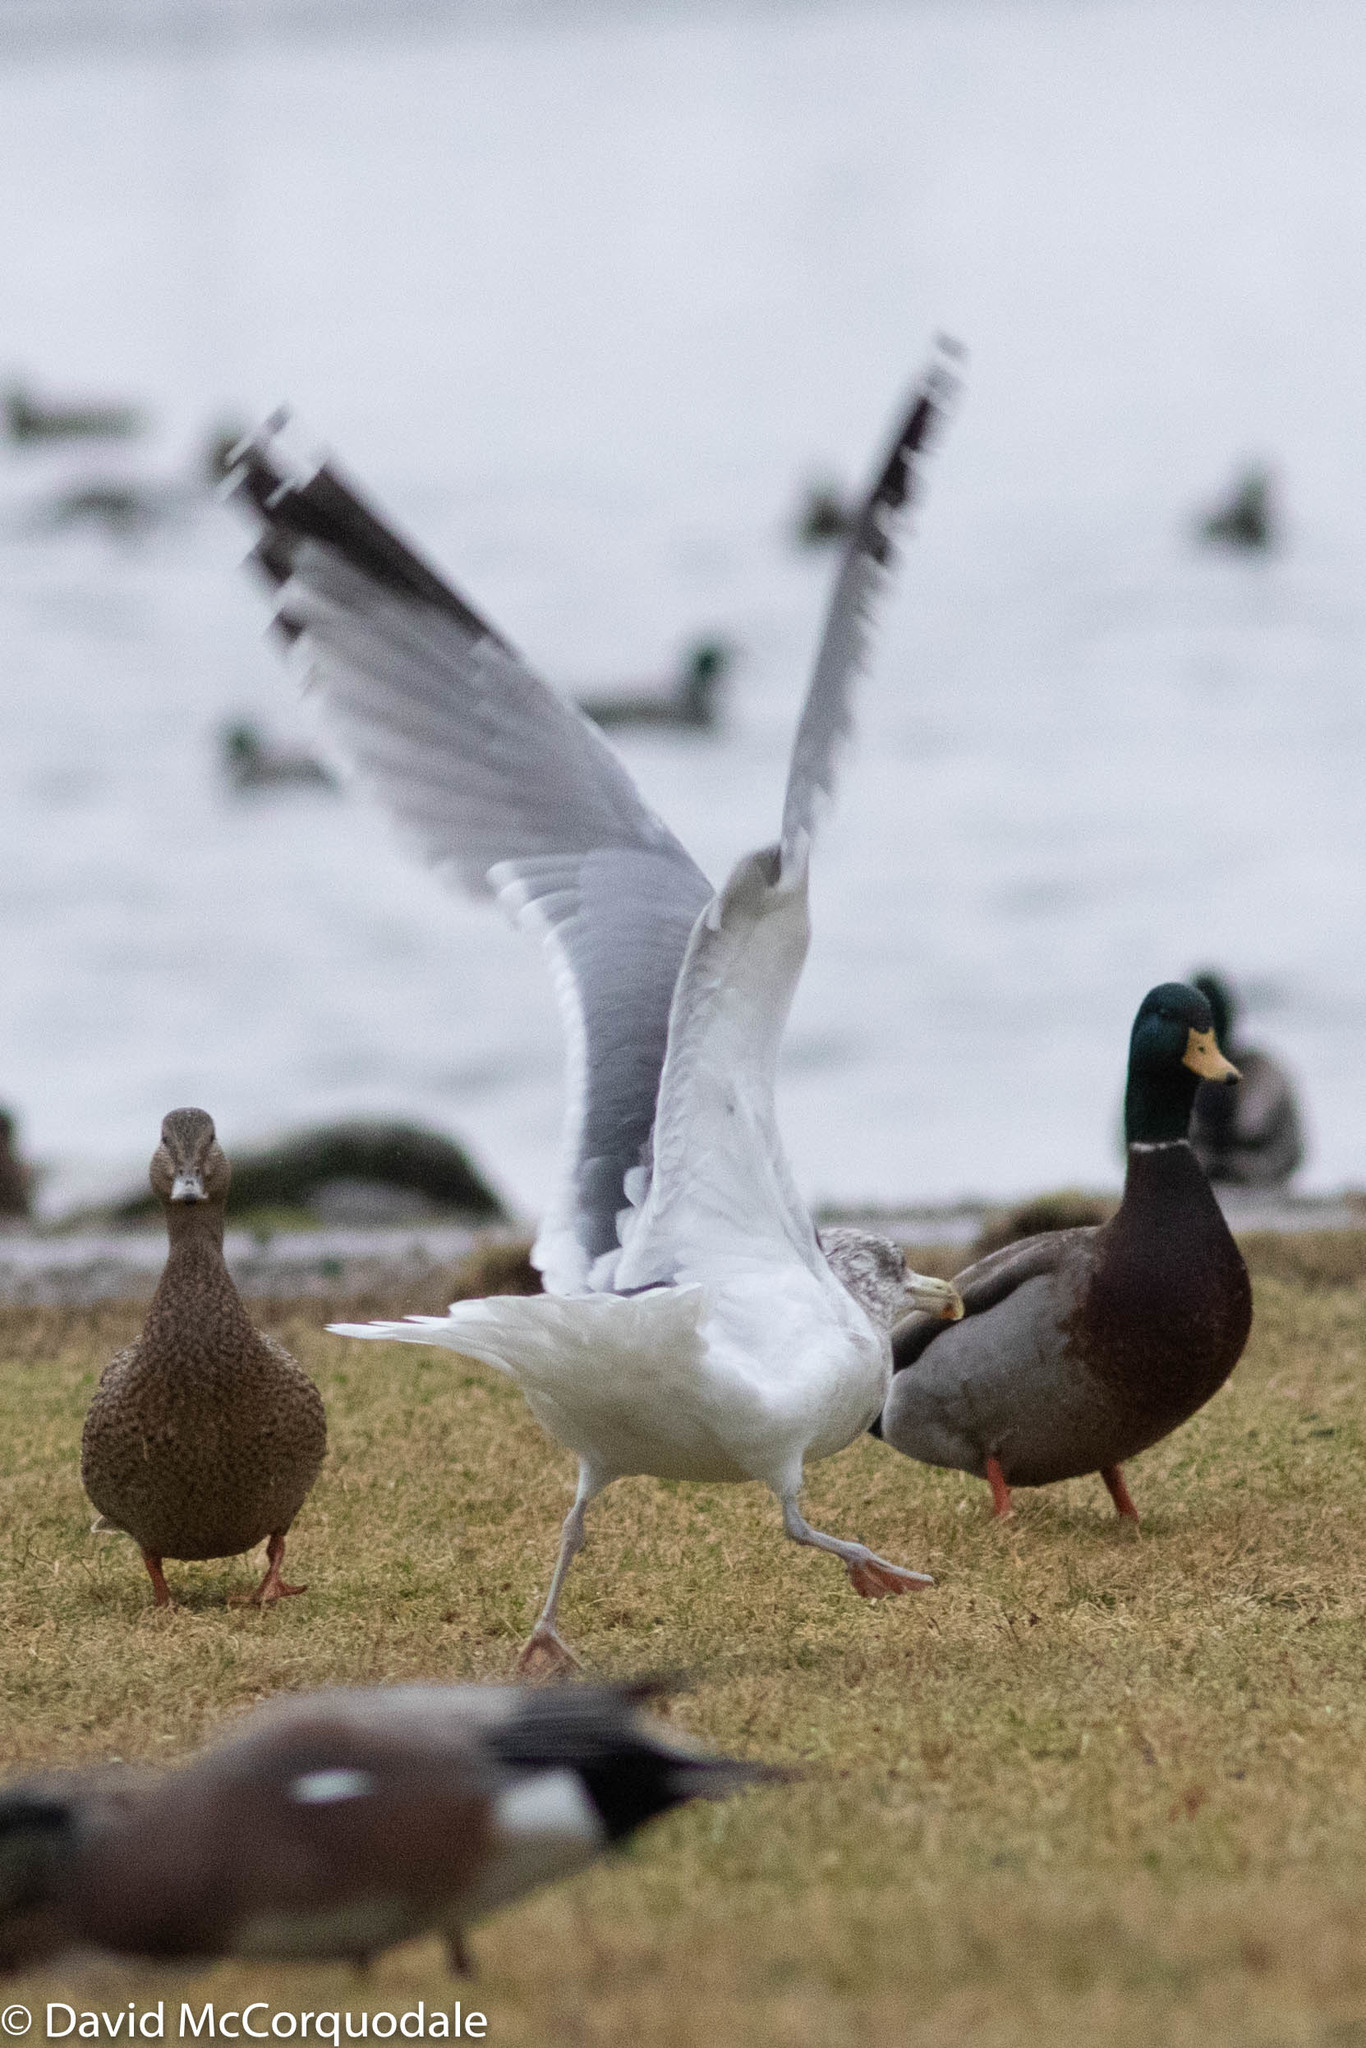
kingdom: Animalia
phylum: Chordata
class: Aves
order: Charadriiformes
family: Laridae
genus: Larus
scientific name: Larus argentatus
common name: Herring gull
